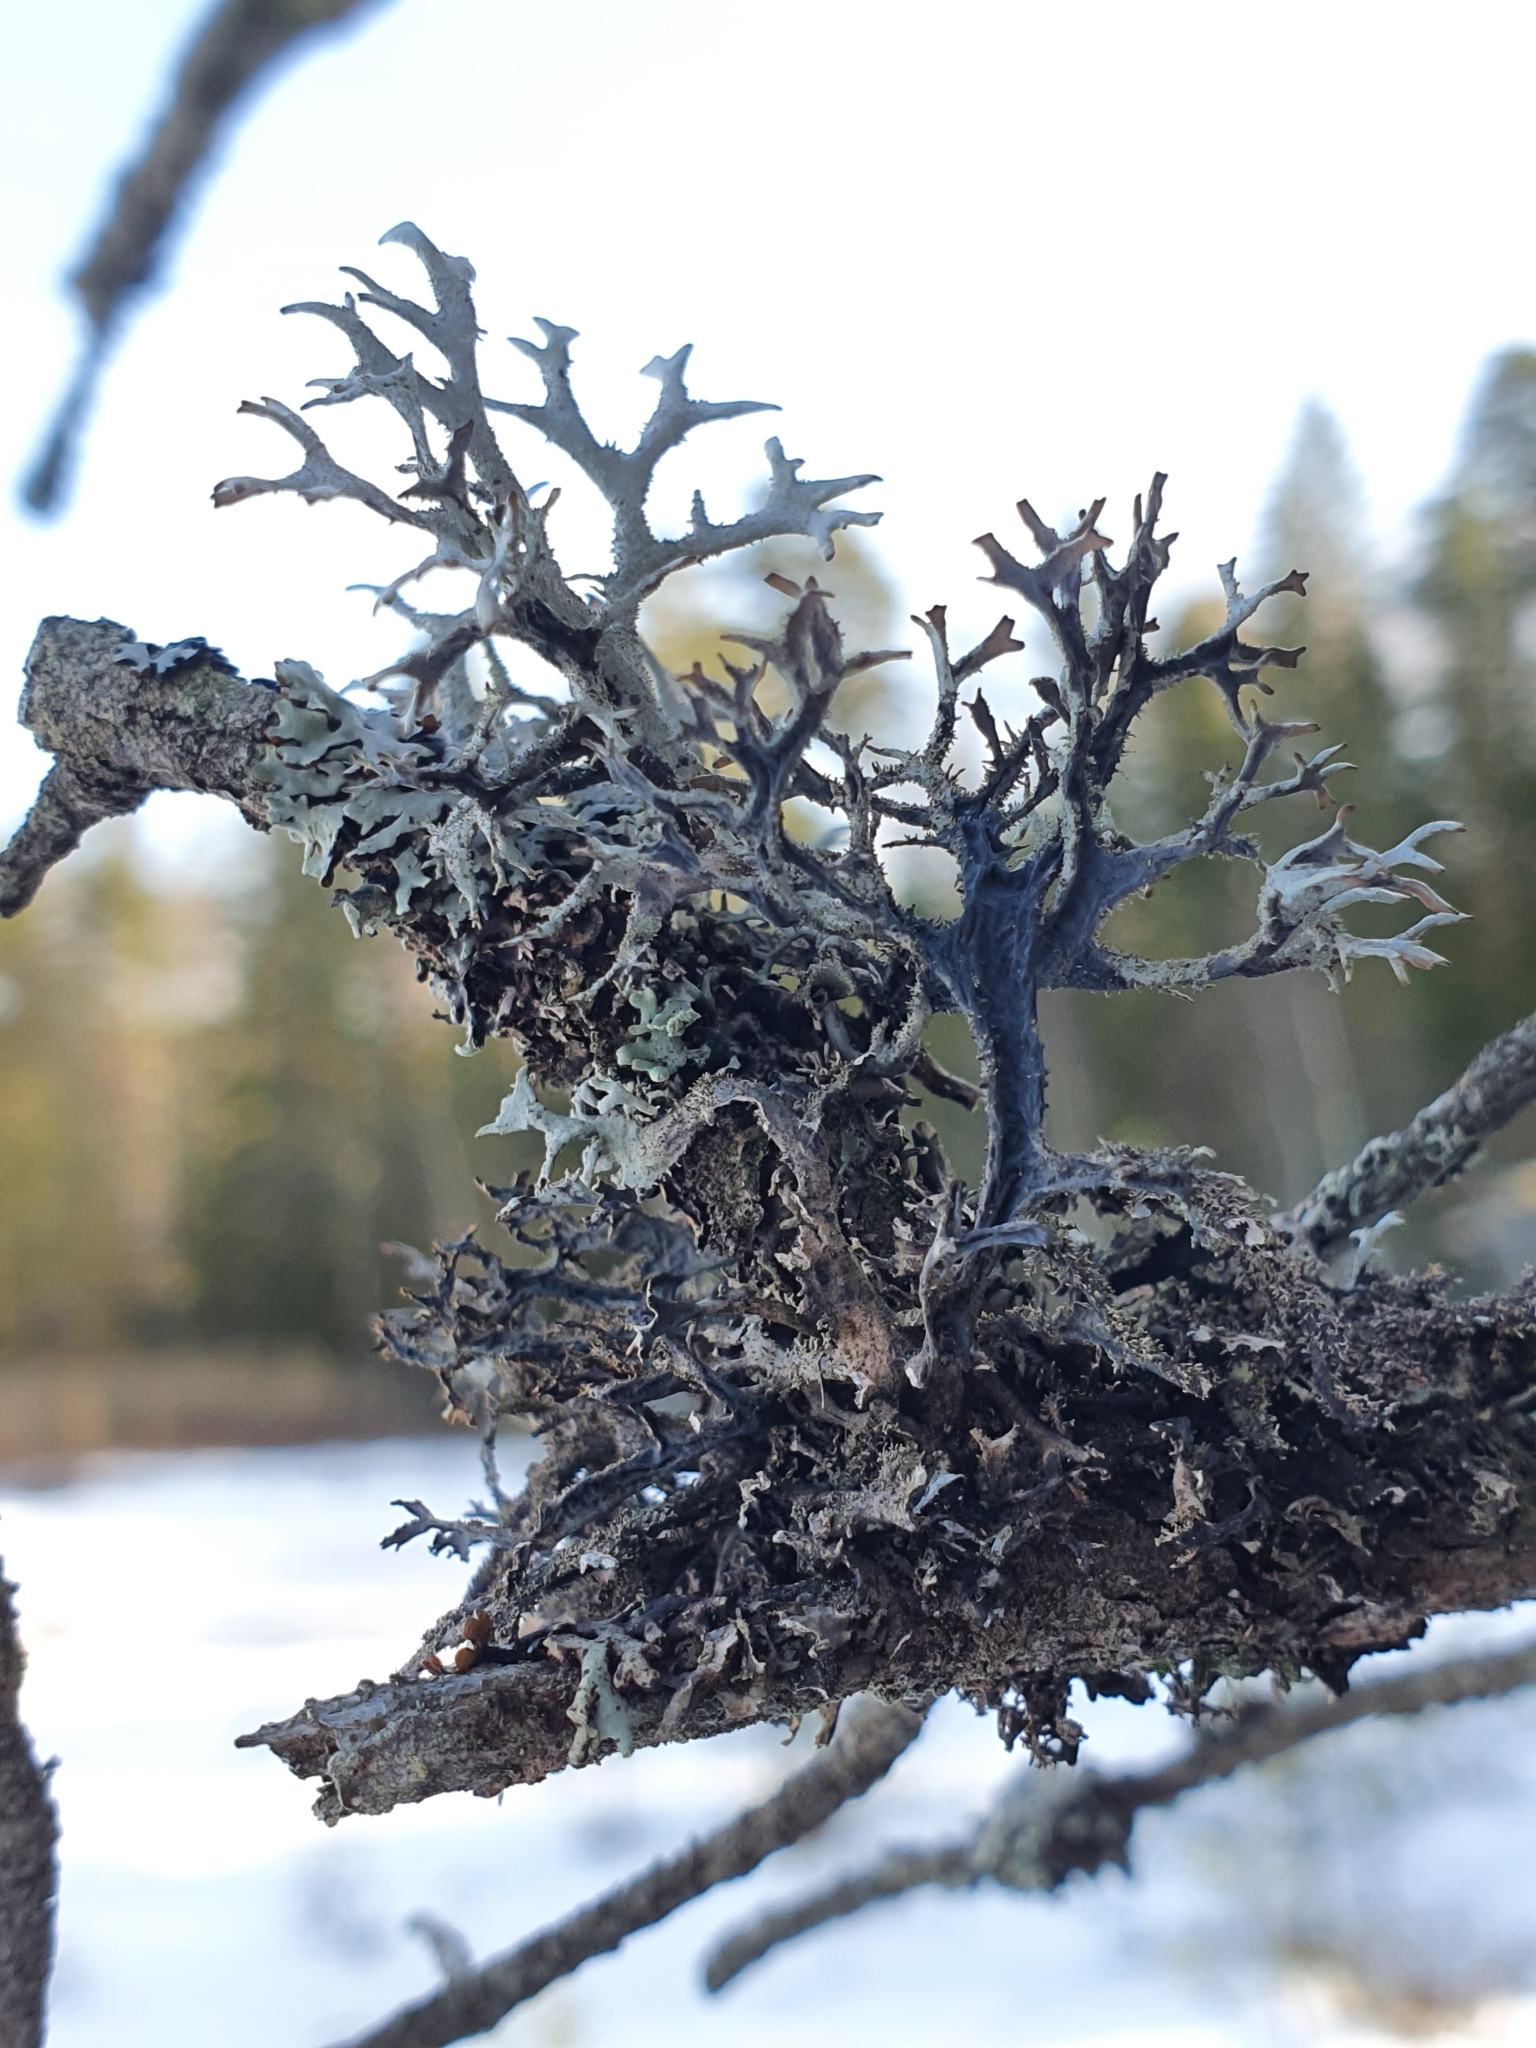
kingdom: Fungi
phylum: Ascomycota
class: Lecanoromycetes
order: Lecanorales
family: Parmeliaceae
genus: Pseudevernia
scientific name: Pseudevernia furfuracea
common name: Tree moss
